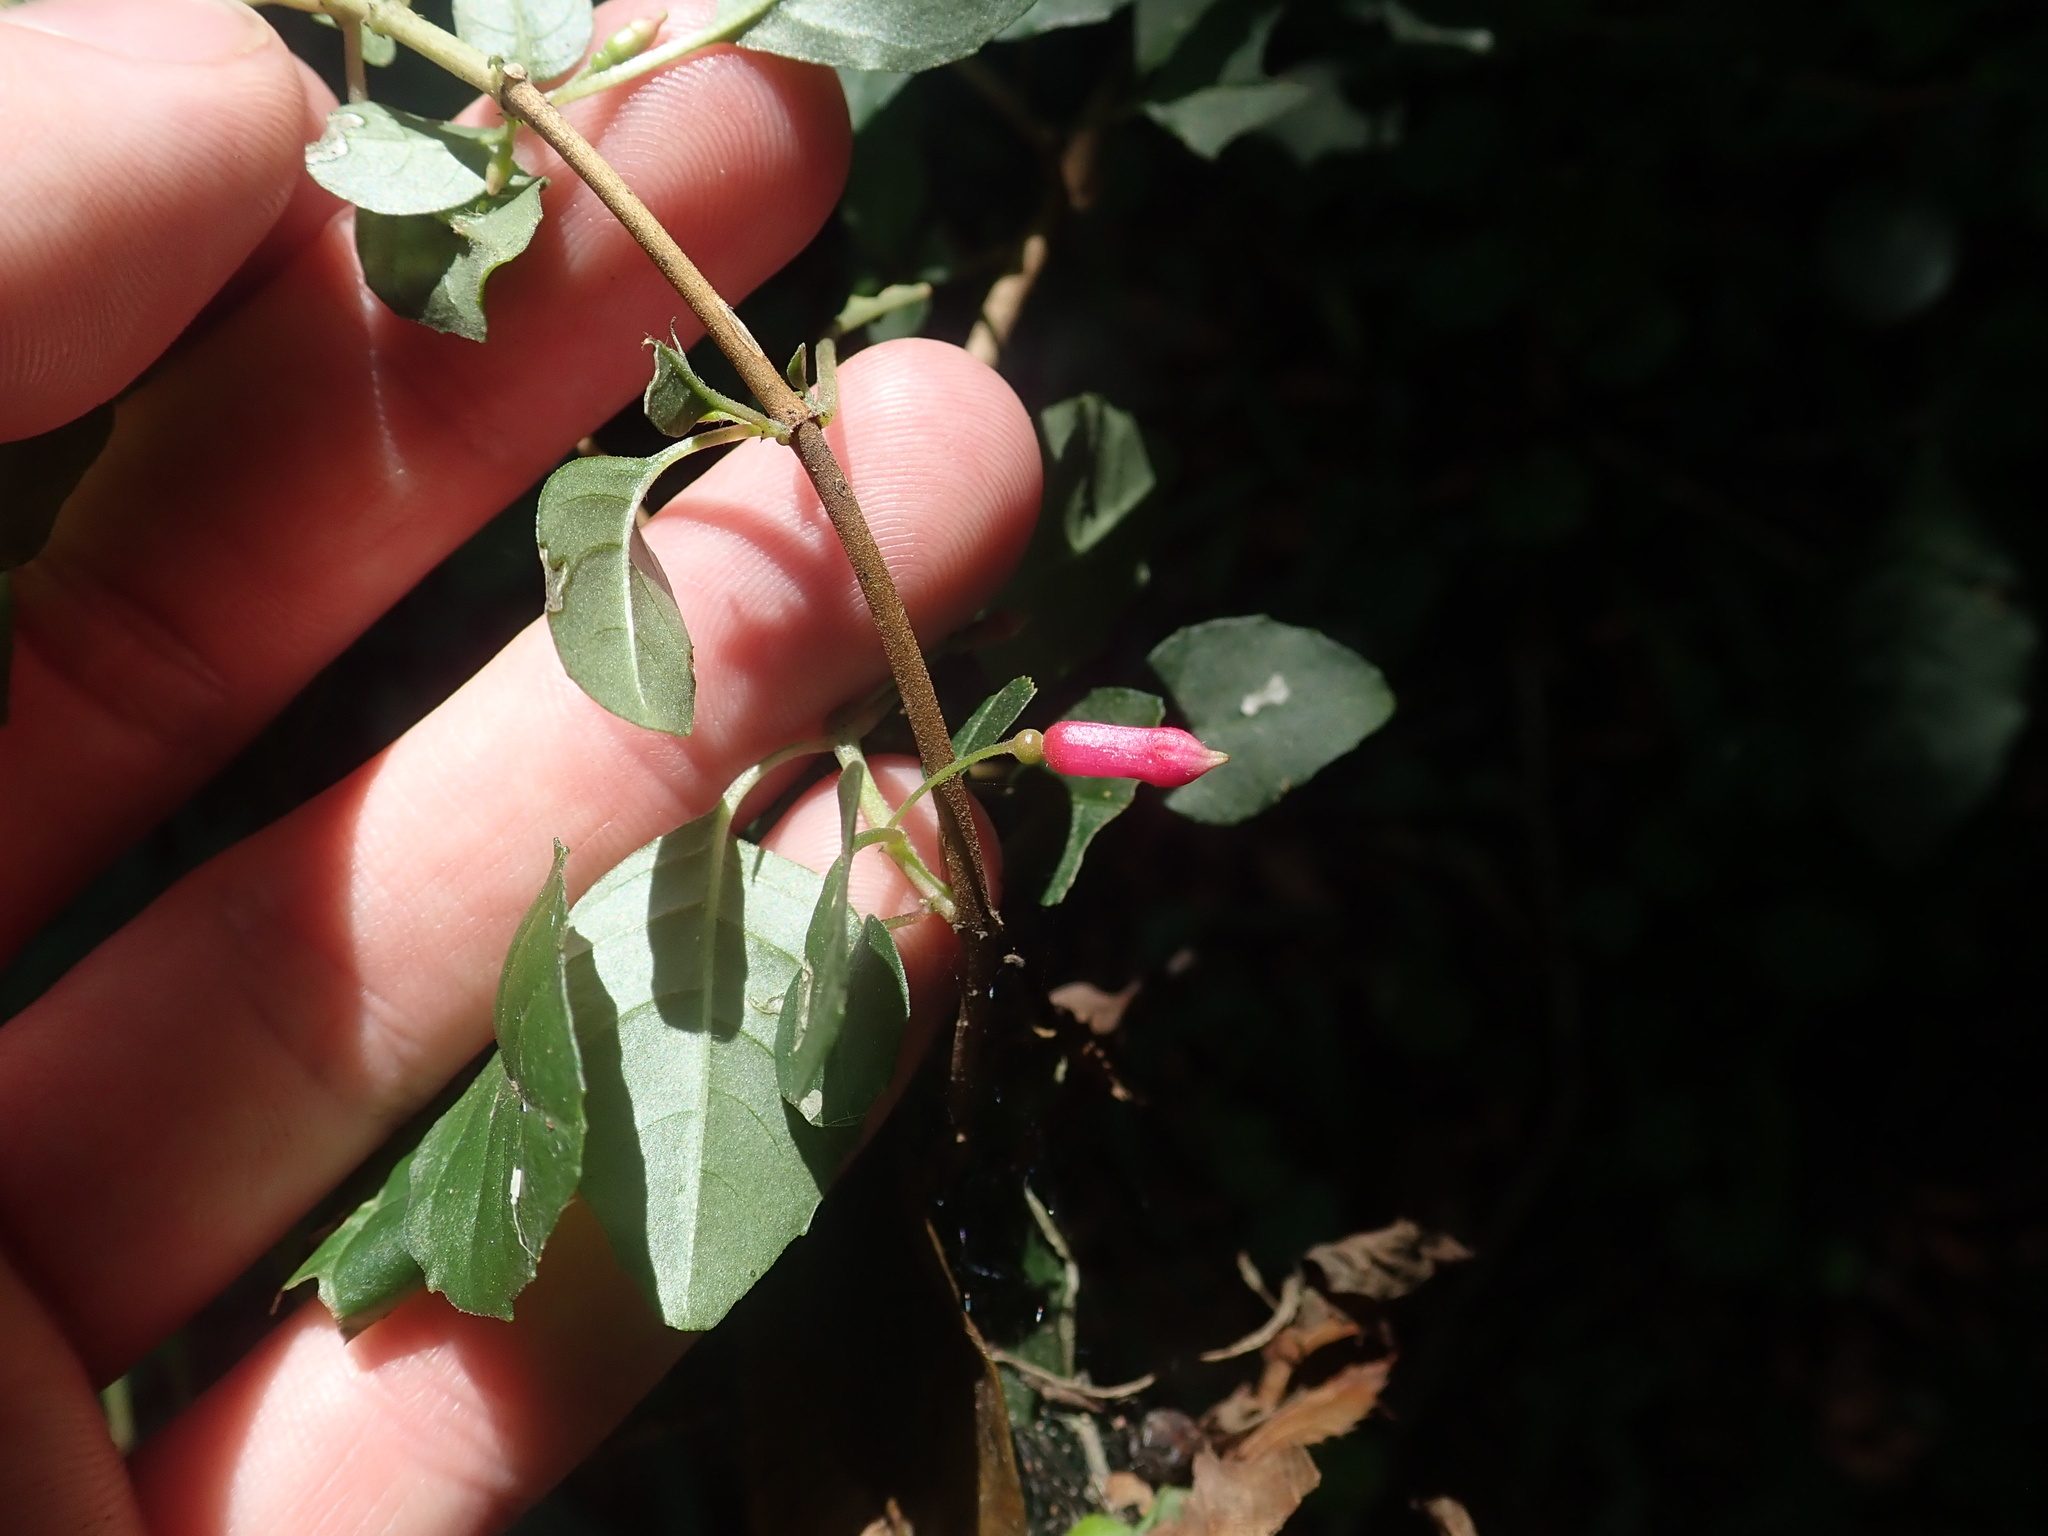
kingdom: Plantae
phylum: Tracheophyta
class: Magnoliopsida
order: Myrtales
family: Onagraceae
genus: Fuchsia
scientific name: Fuchsia microphylla
